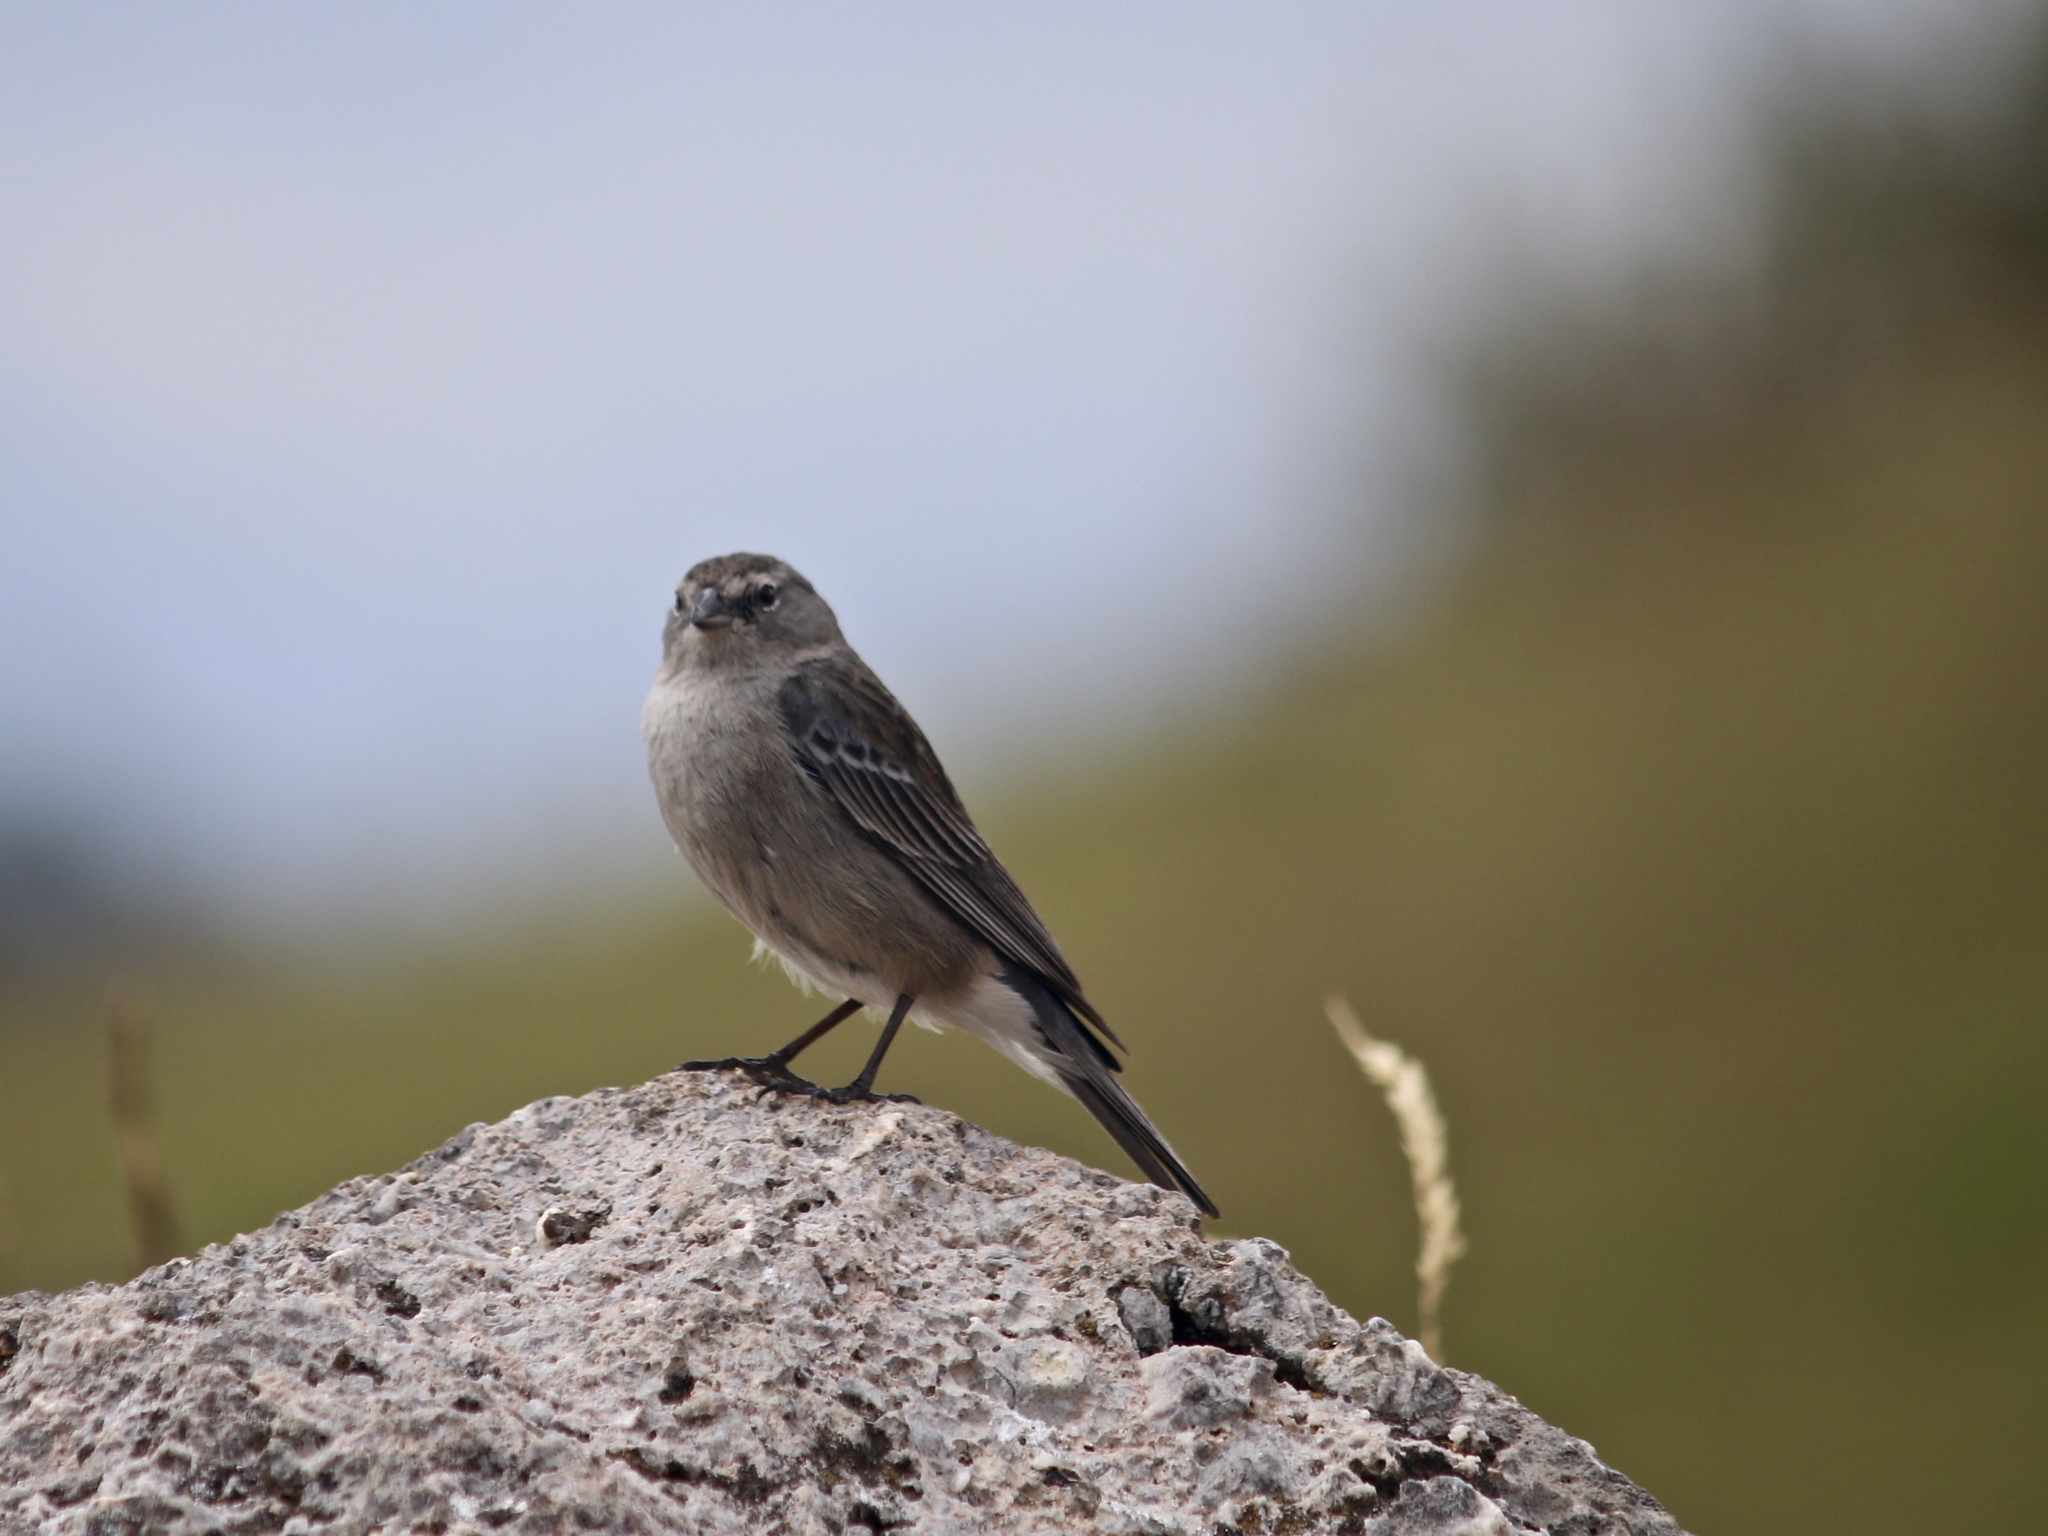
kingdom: Animalia
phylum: Chordata
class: Aves
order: Passeriformes
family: Thraupidae
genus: Geospizopsis
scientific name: Geospizopsis plebejus
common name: Ash-breasted sierra-finch
